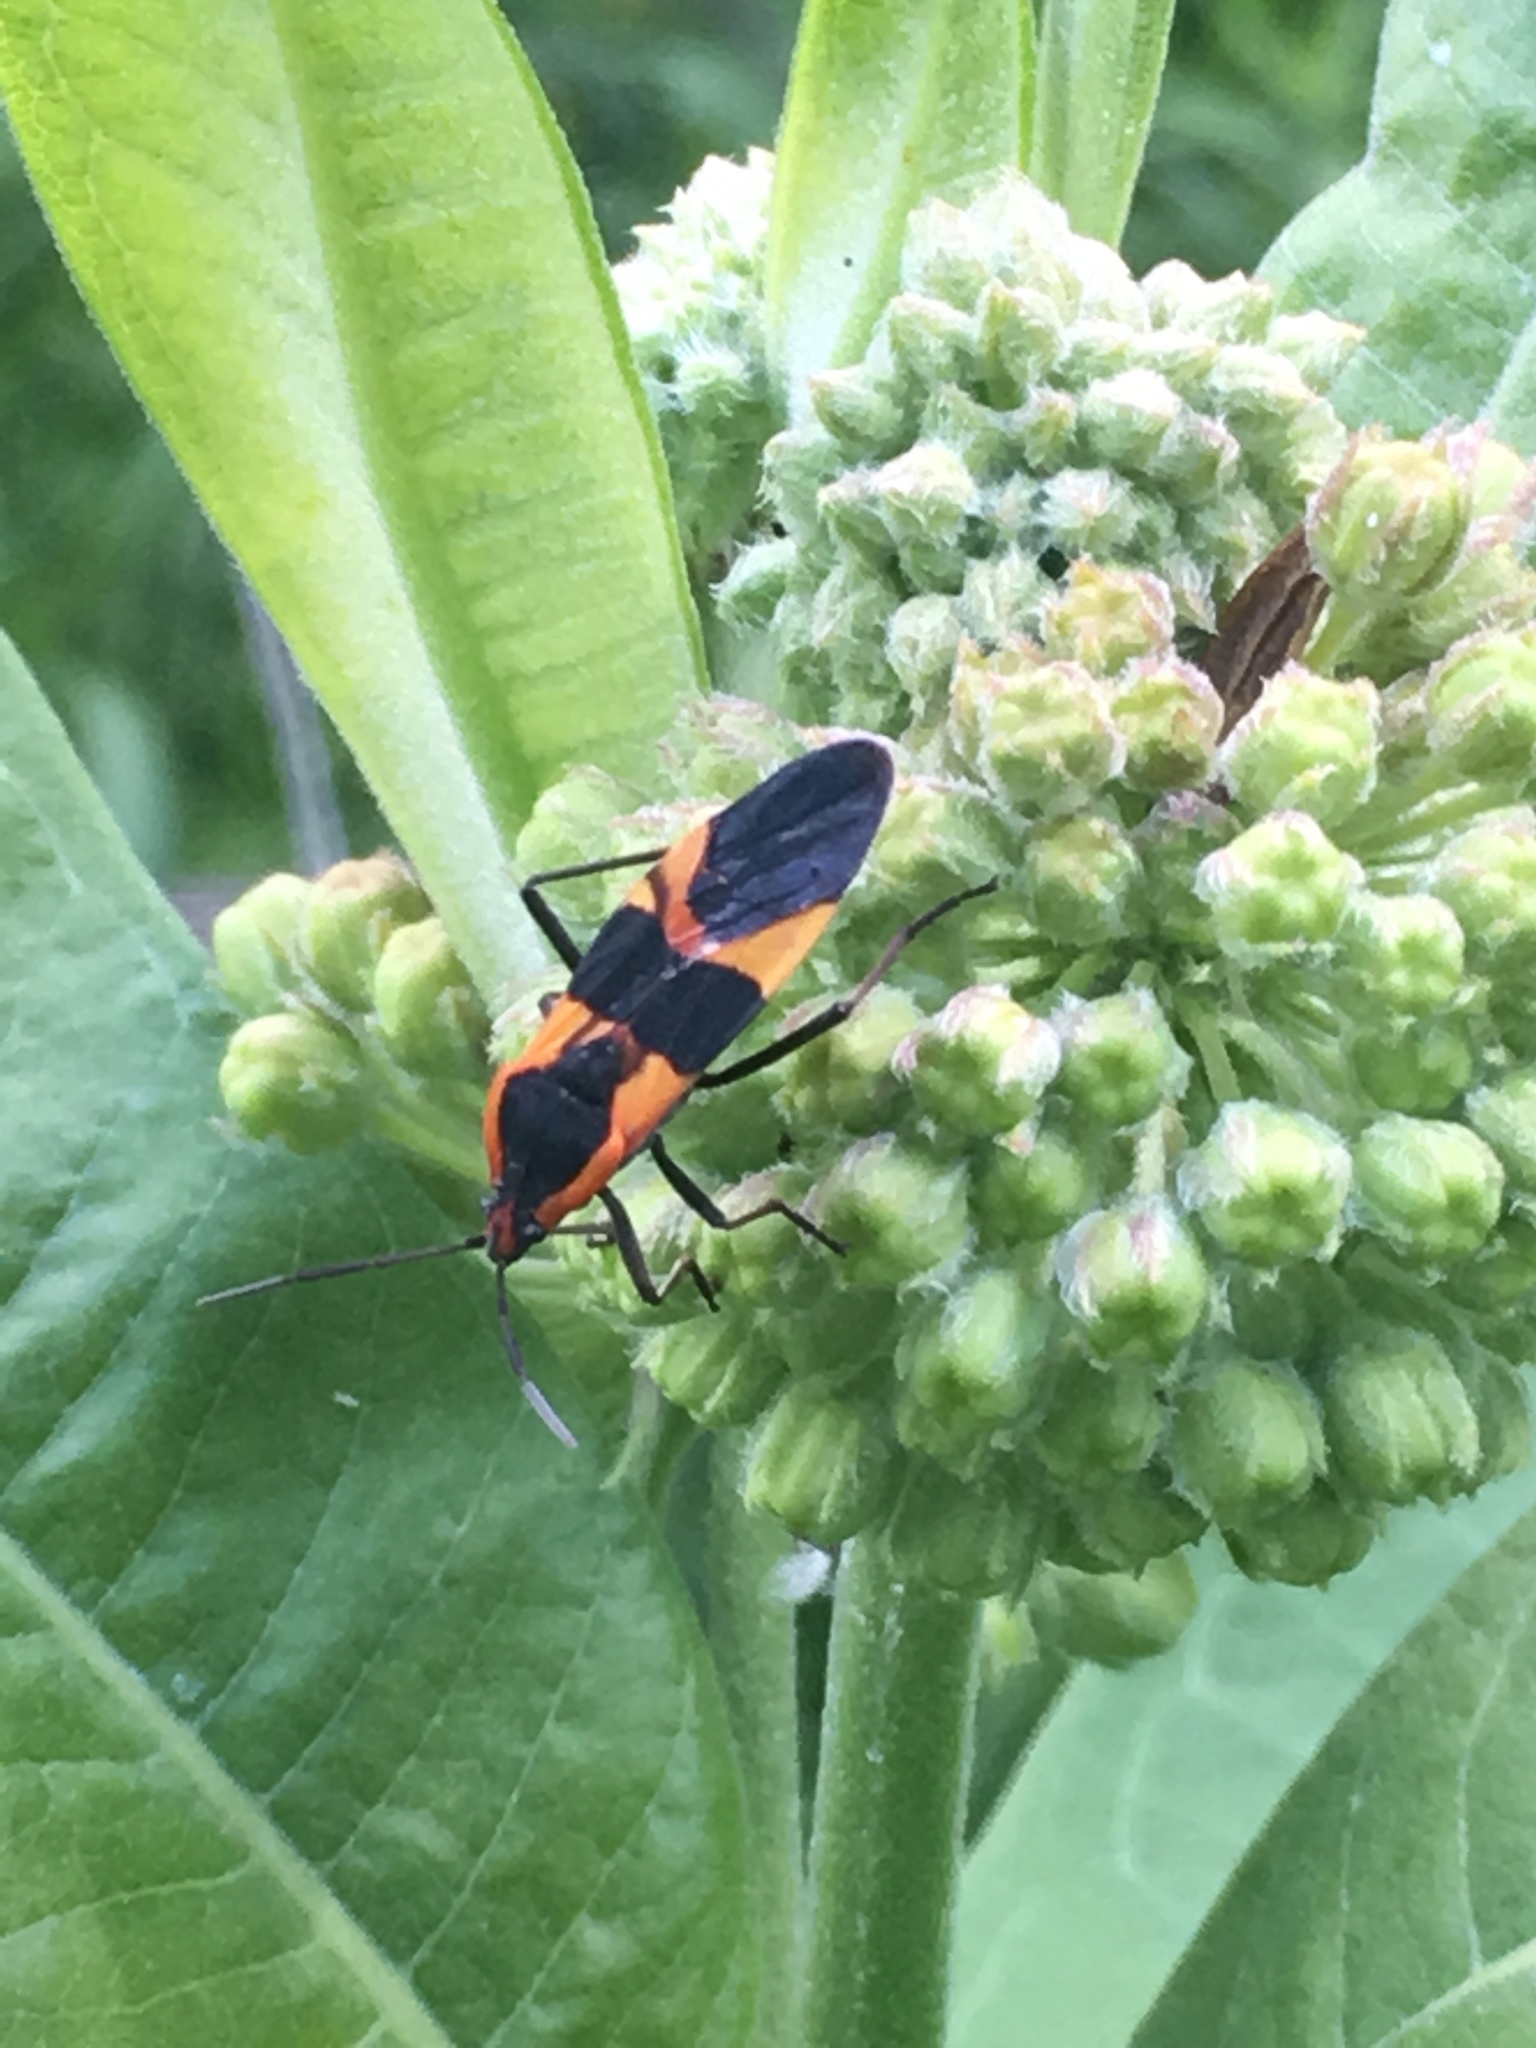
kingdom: Animalia
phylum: Arthropoda
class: Insecta
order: Hemiptera
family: Lygaeidae
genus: Oncopeltus
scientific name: Oncopeltus fasciatus
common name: Large milkweed bug
